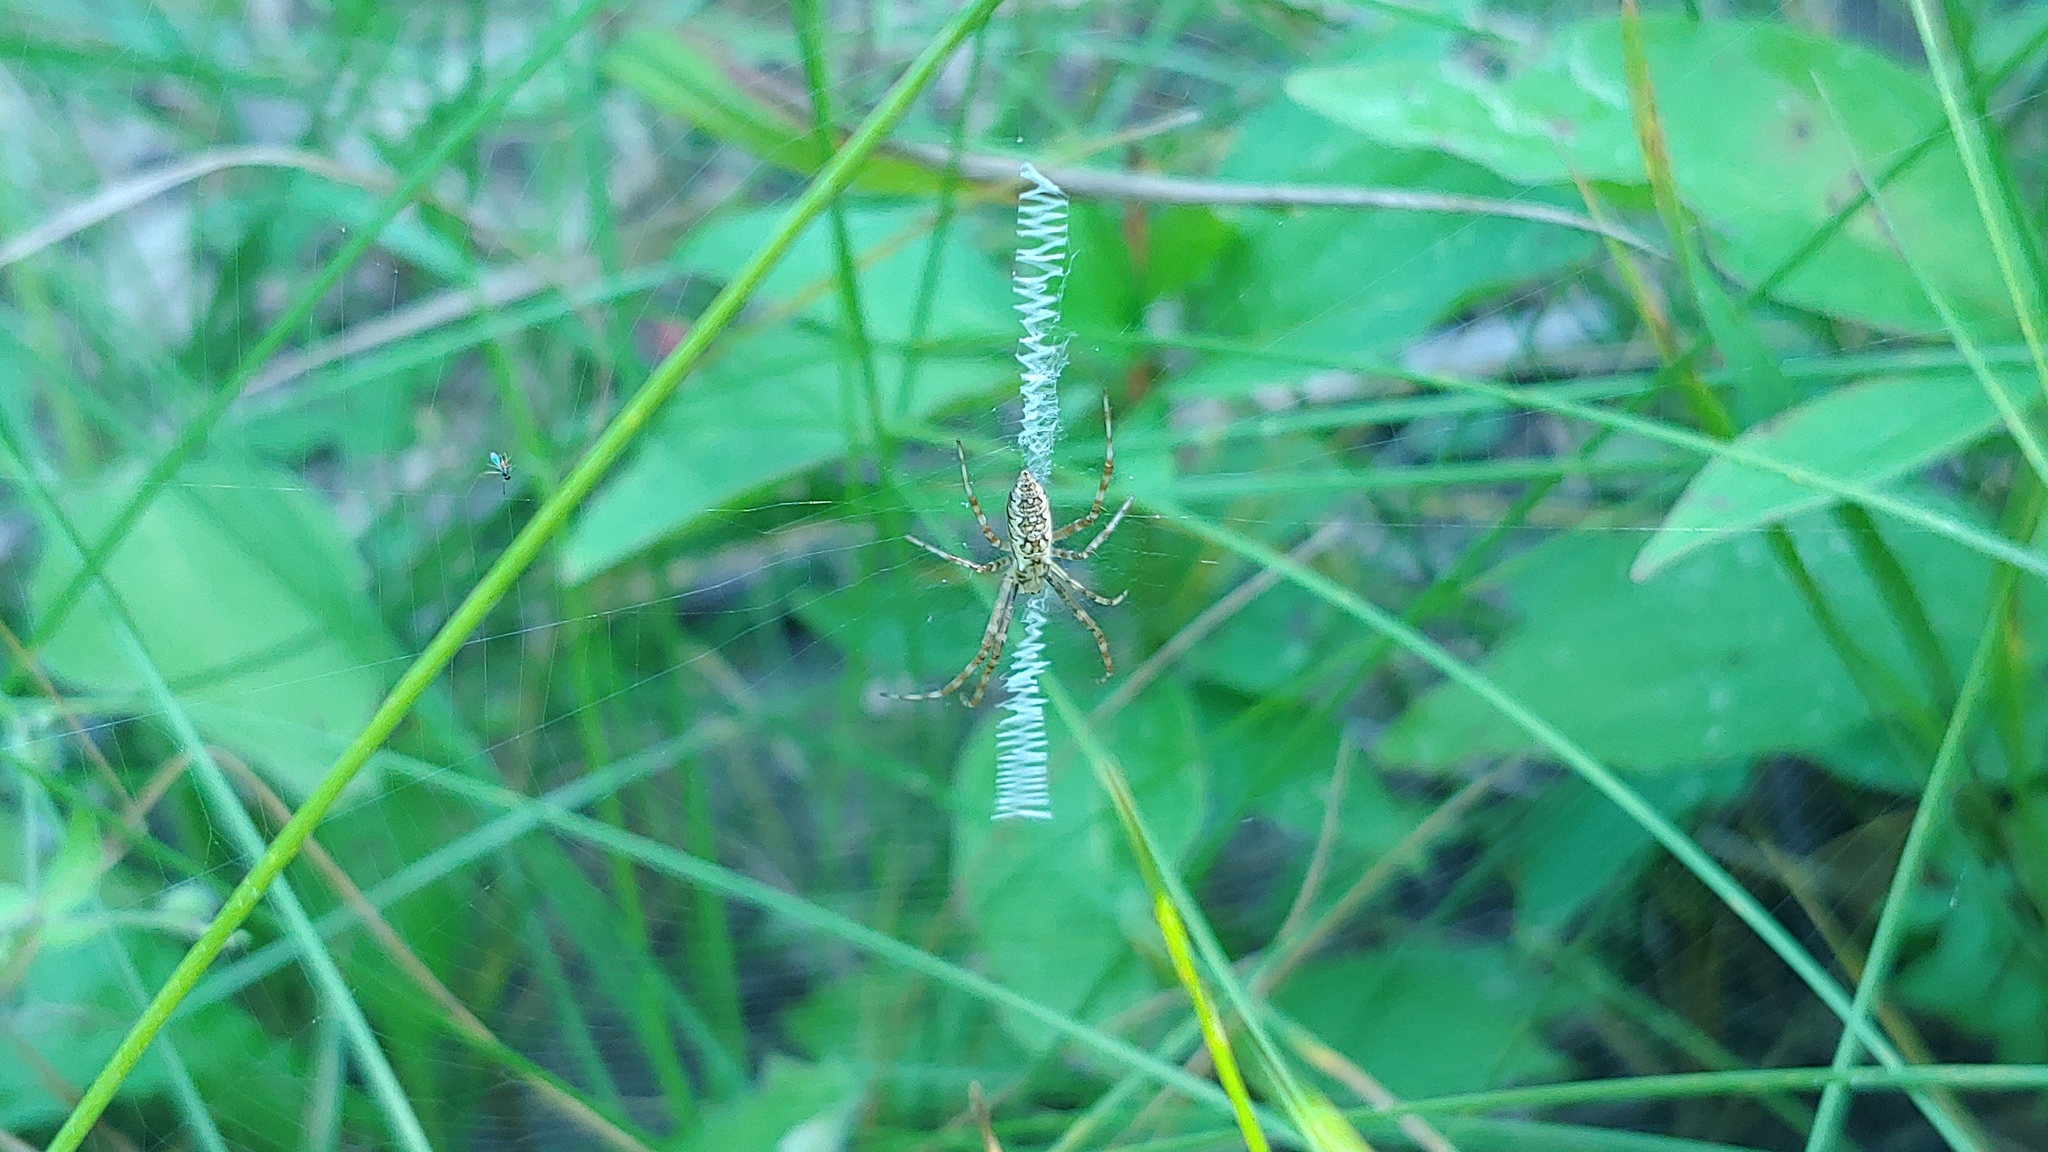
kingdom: Animalia
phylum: Arthropoda
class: Arachnida
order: Araneae
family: Araneidae
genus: Argiope
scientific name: Argiope aurantia
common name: Orb weavers
